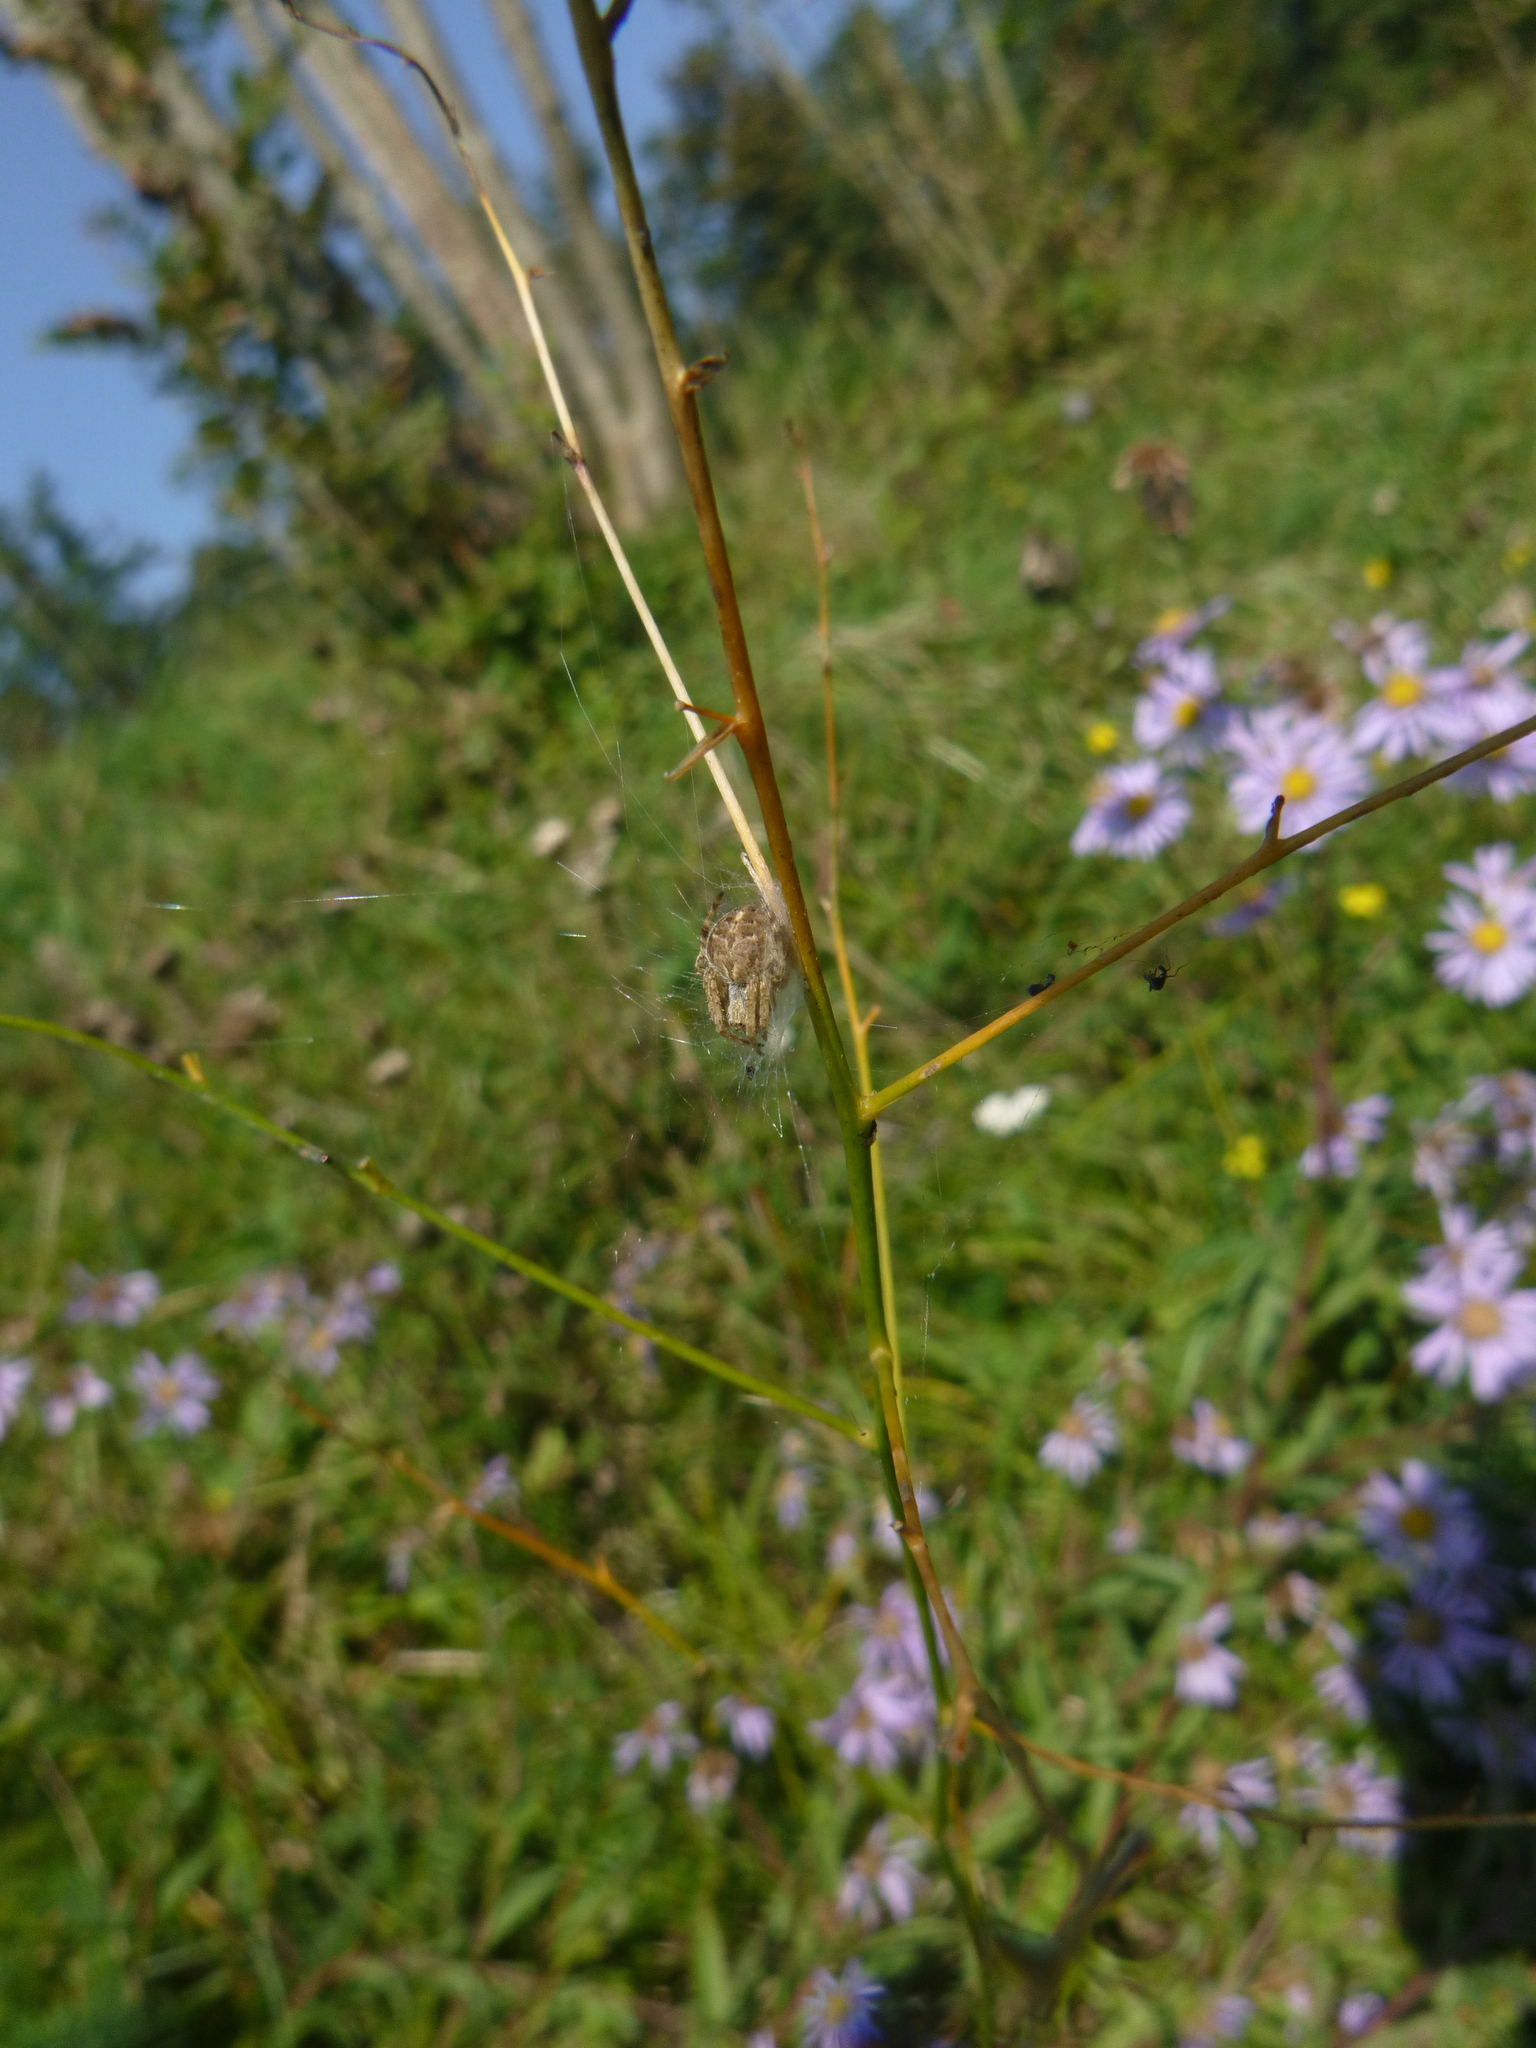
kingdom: Animalia
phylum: Arthropoda
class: Arachnida
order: Araneae
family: Araneidae
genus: Agalenatea
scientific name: Agalenatea redii
